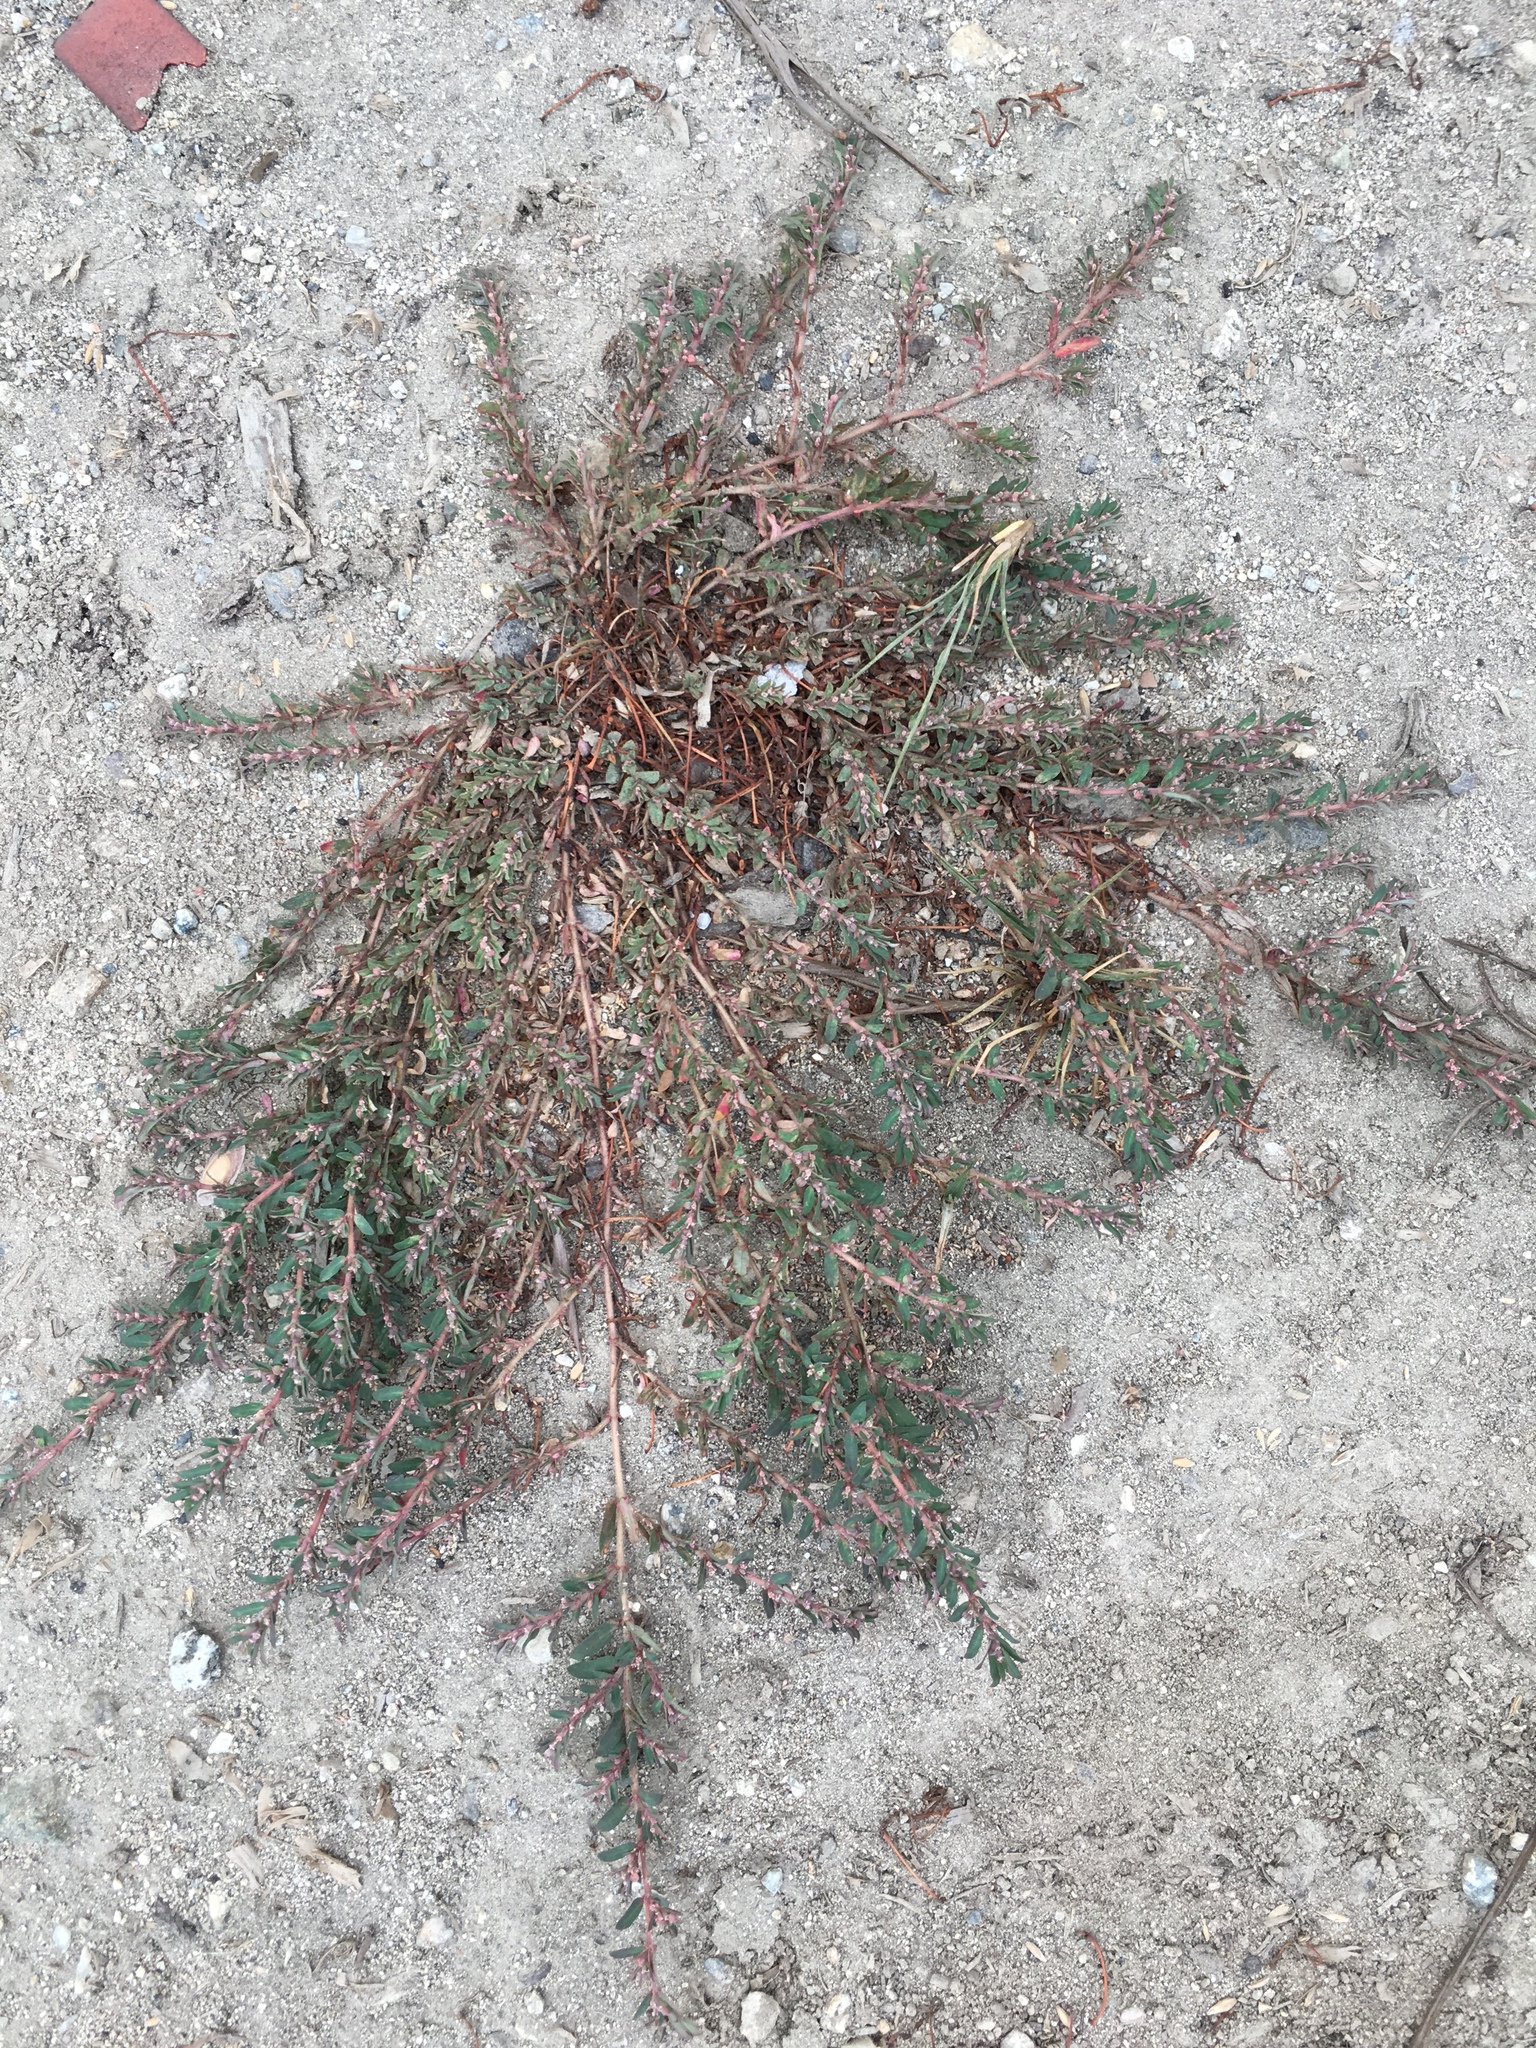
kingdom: Plantae
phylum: Tracheophyta
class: Magnoliopsida
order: Malpighiales
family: Euphorbiaceae
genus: Euphorbia
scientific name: Euphorbia maculata
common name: Spotted spurge
